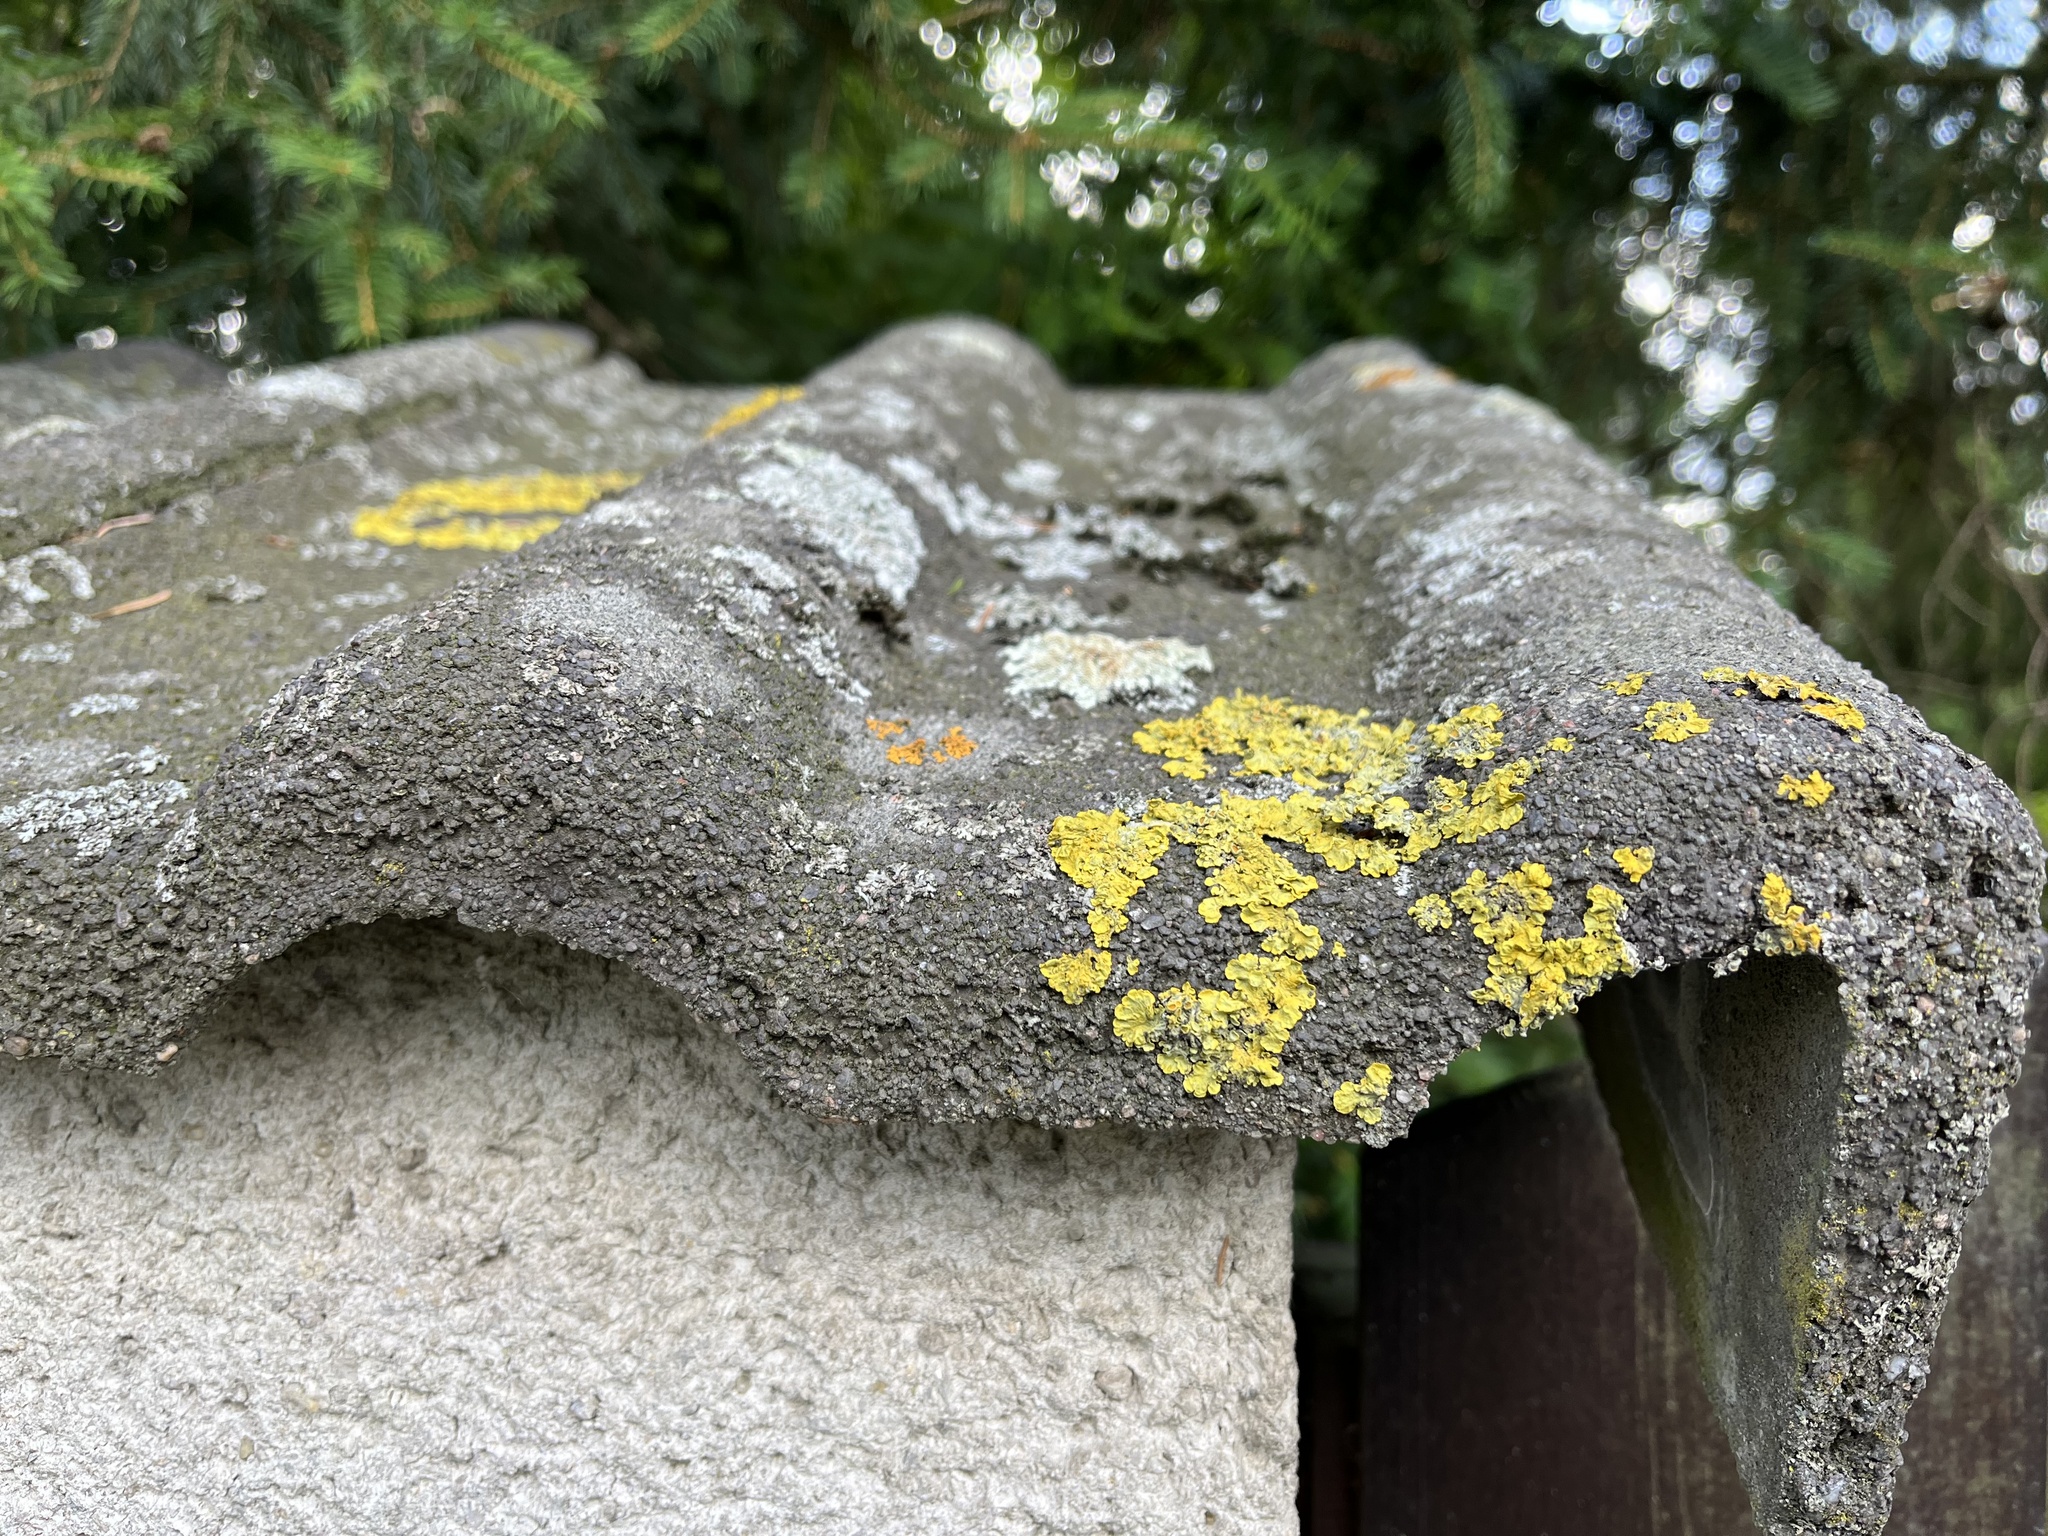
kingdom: Fungi
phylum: Ascomycota
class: Lecanoromycetes
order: Teloschistales
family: Teloschistaceae
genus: Xanthoria
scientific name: Xanthoria parietina
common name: Common orange lichen
